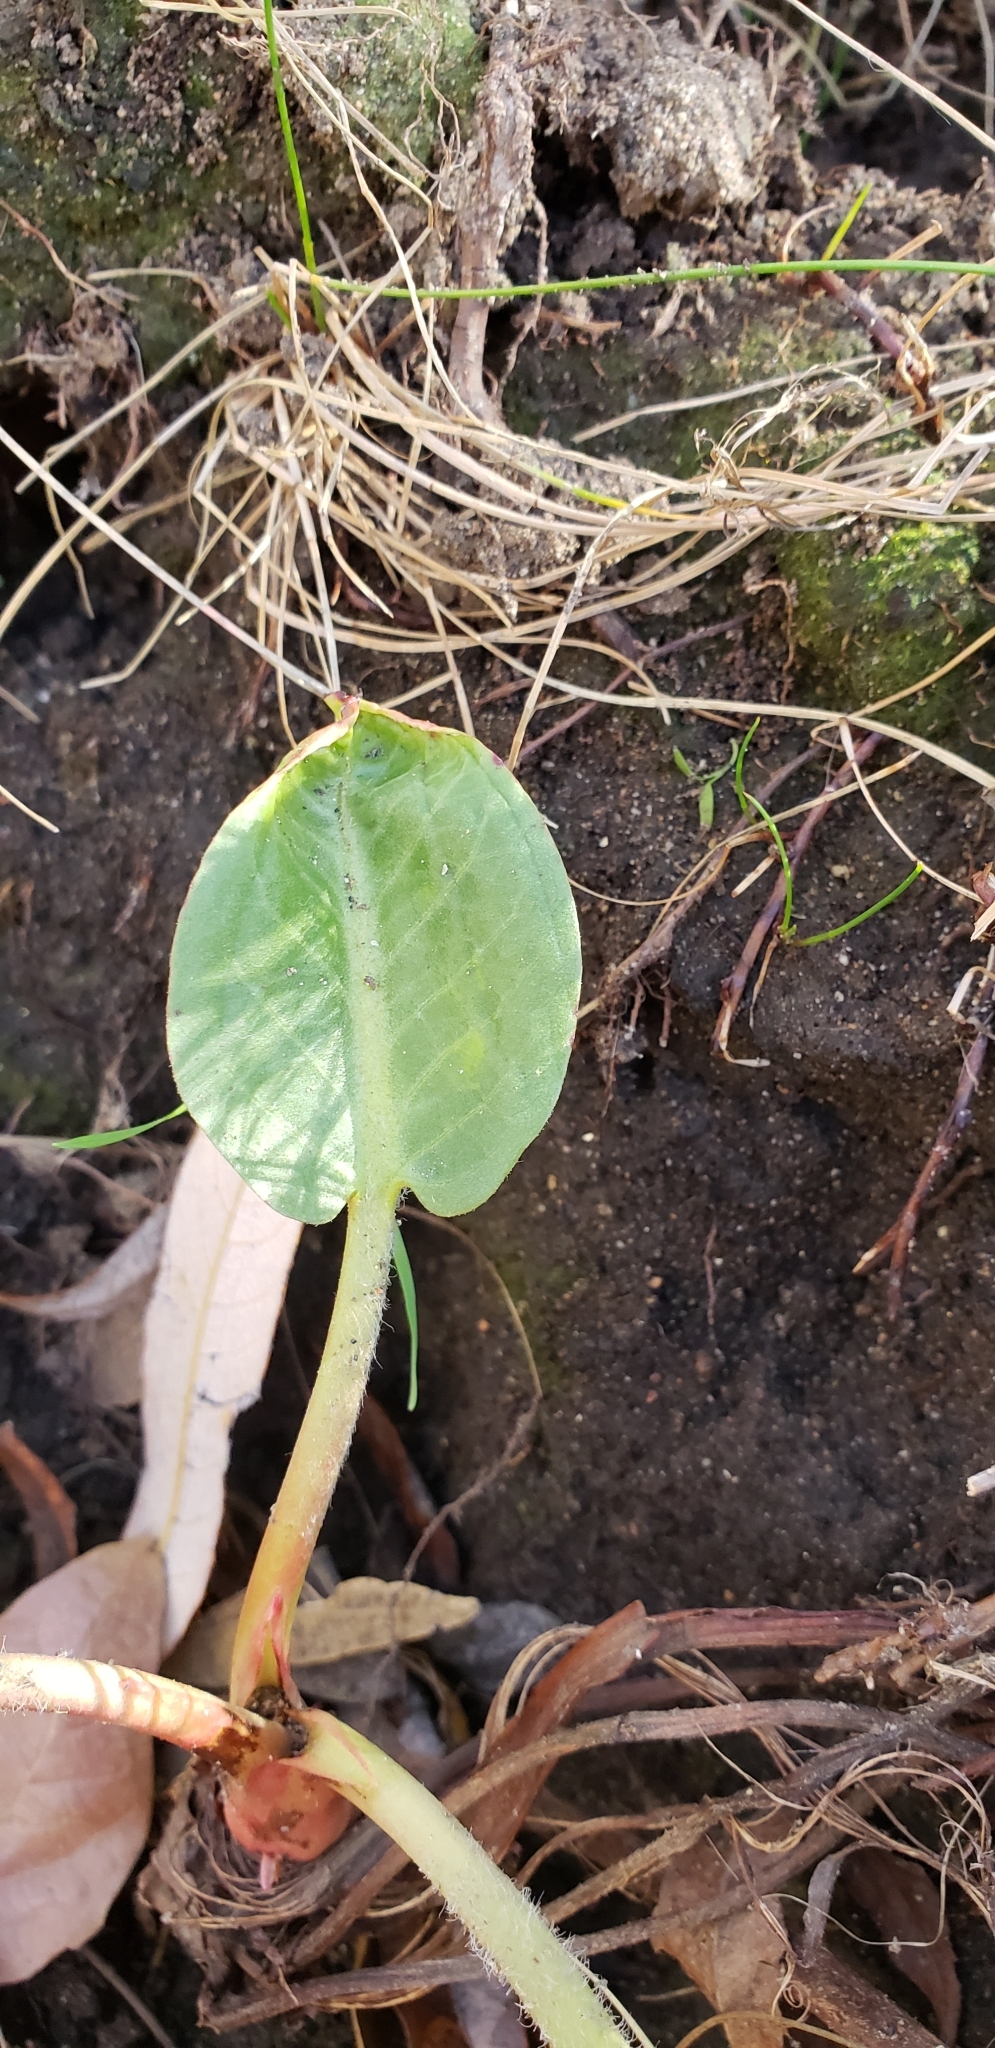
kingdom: Plantae
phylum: Tracheophyta
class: Magnoliopsida
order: Piperales
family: Saururaceae
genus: Anemopsis
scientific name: Anemopsis californica
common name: Apache-beads
